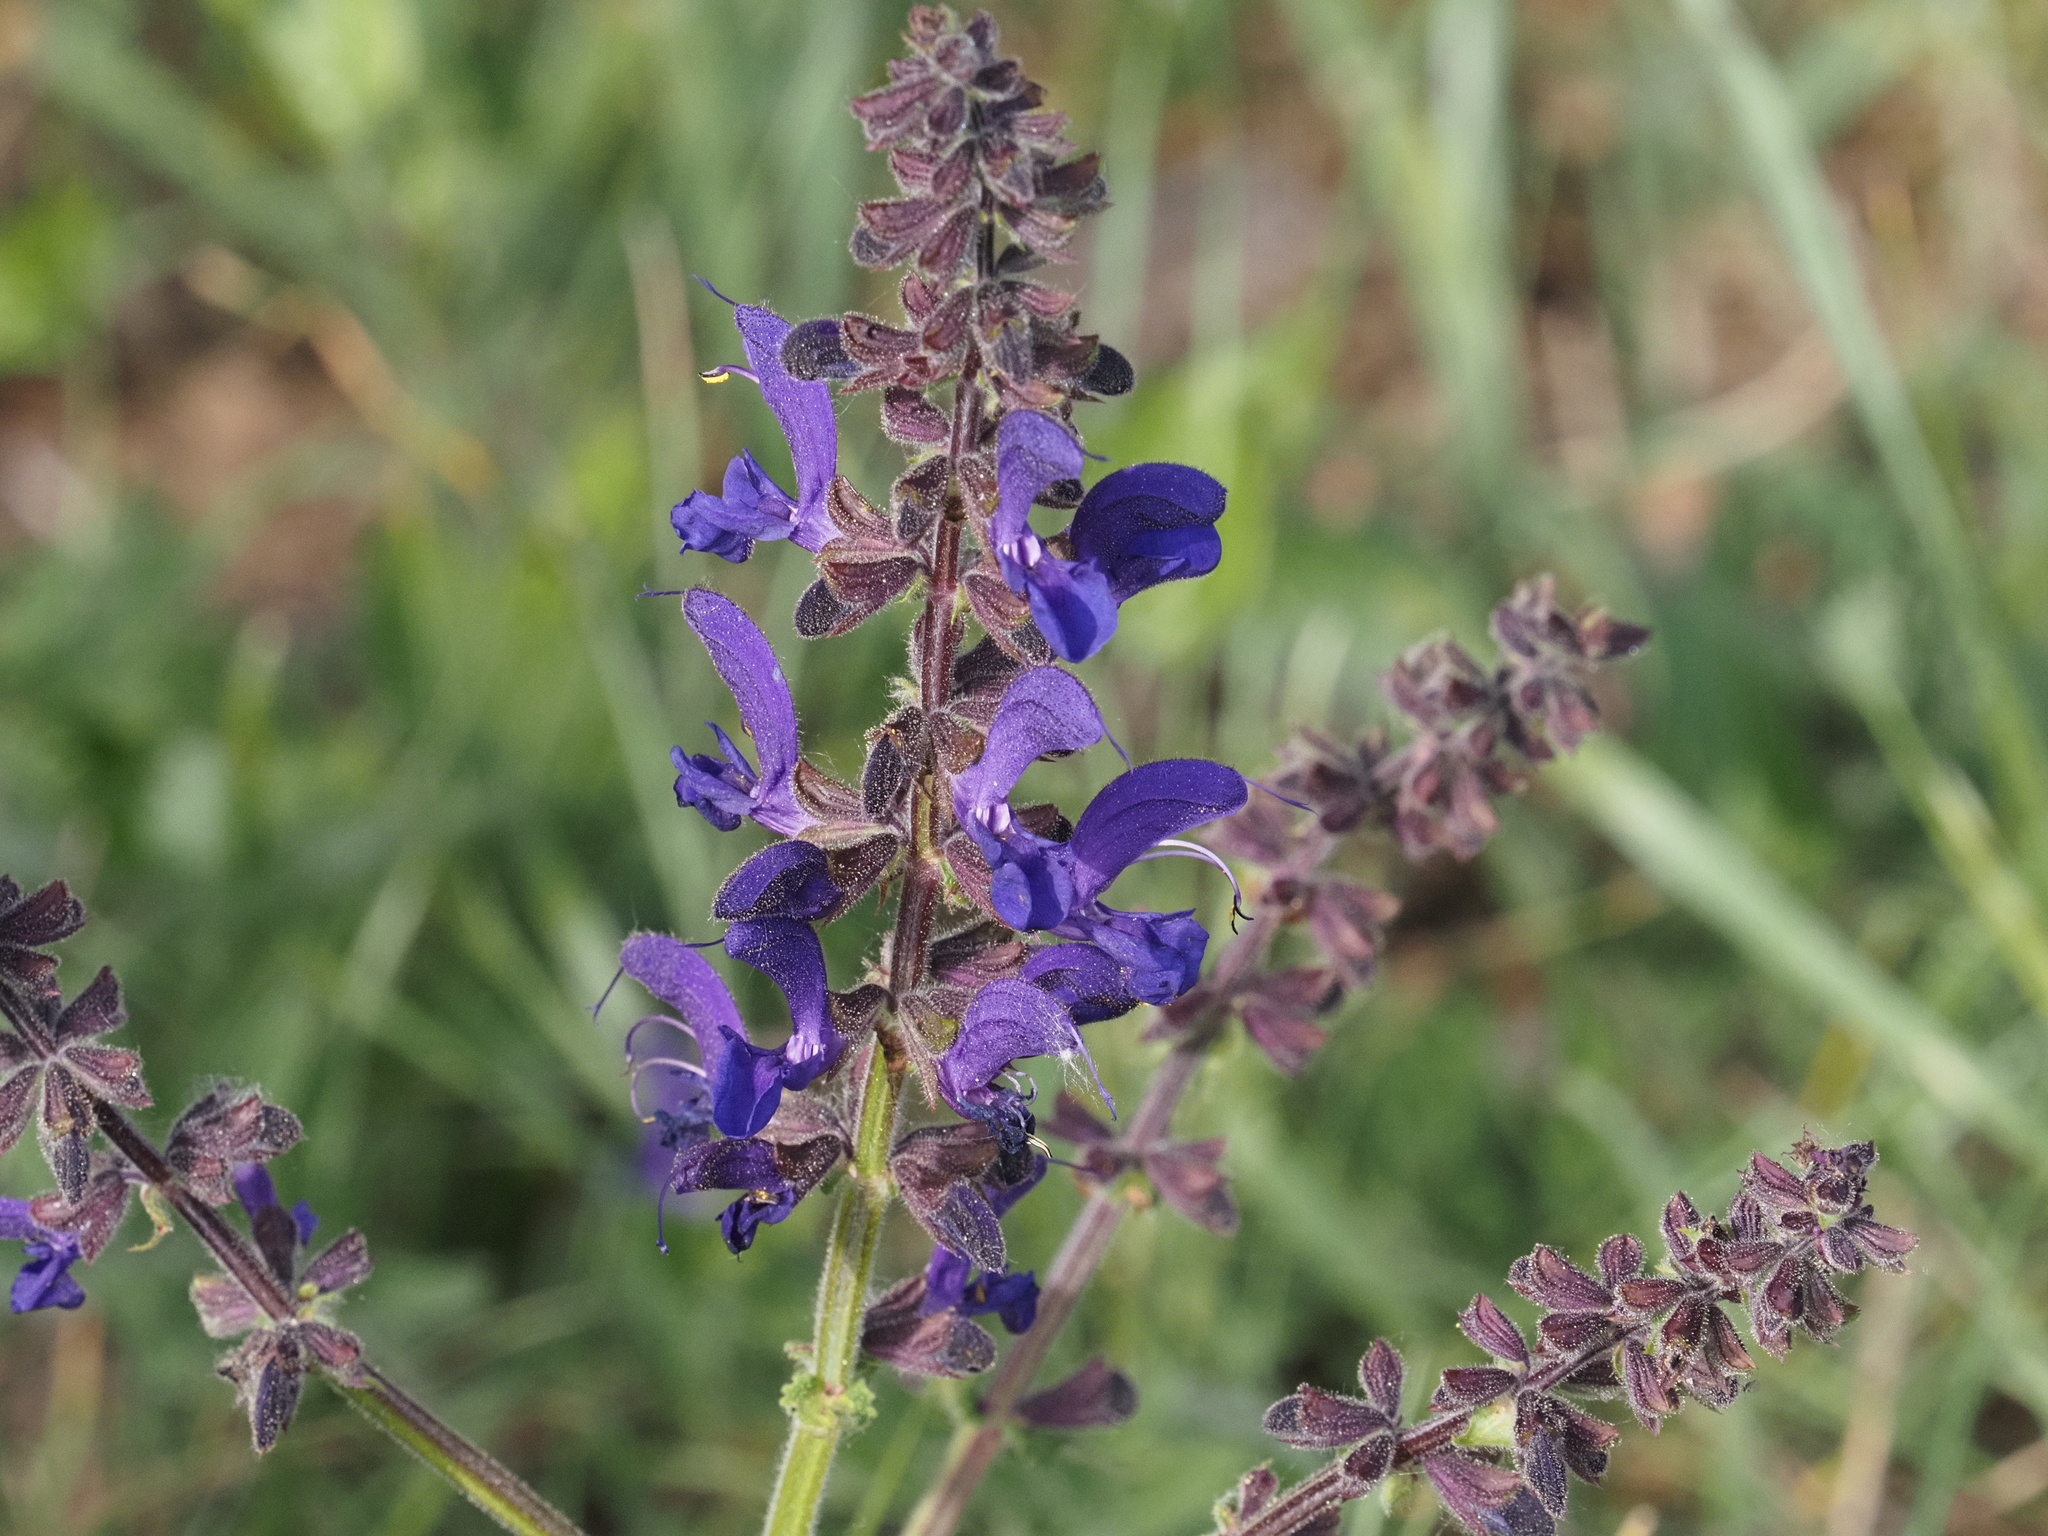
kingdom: Plantae
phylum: Tracheophyta
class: Magnoliopsida
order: Lamiales
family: Lamiaceae
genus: Salvia
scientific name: Salvia pratensis
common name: Meadow sage
